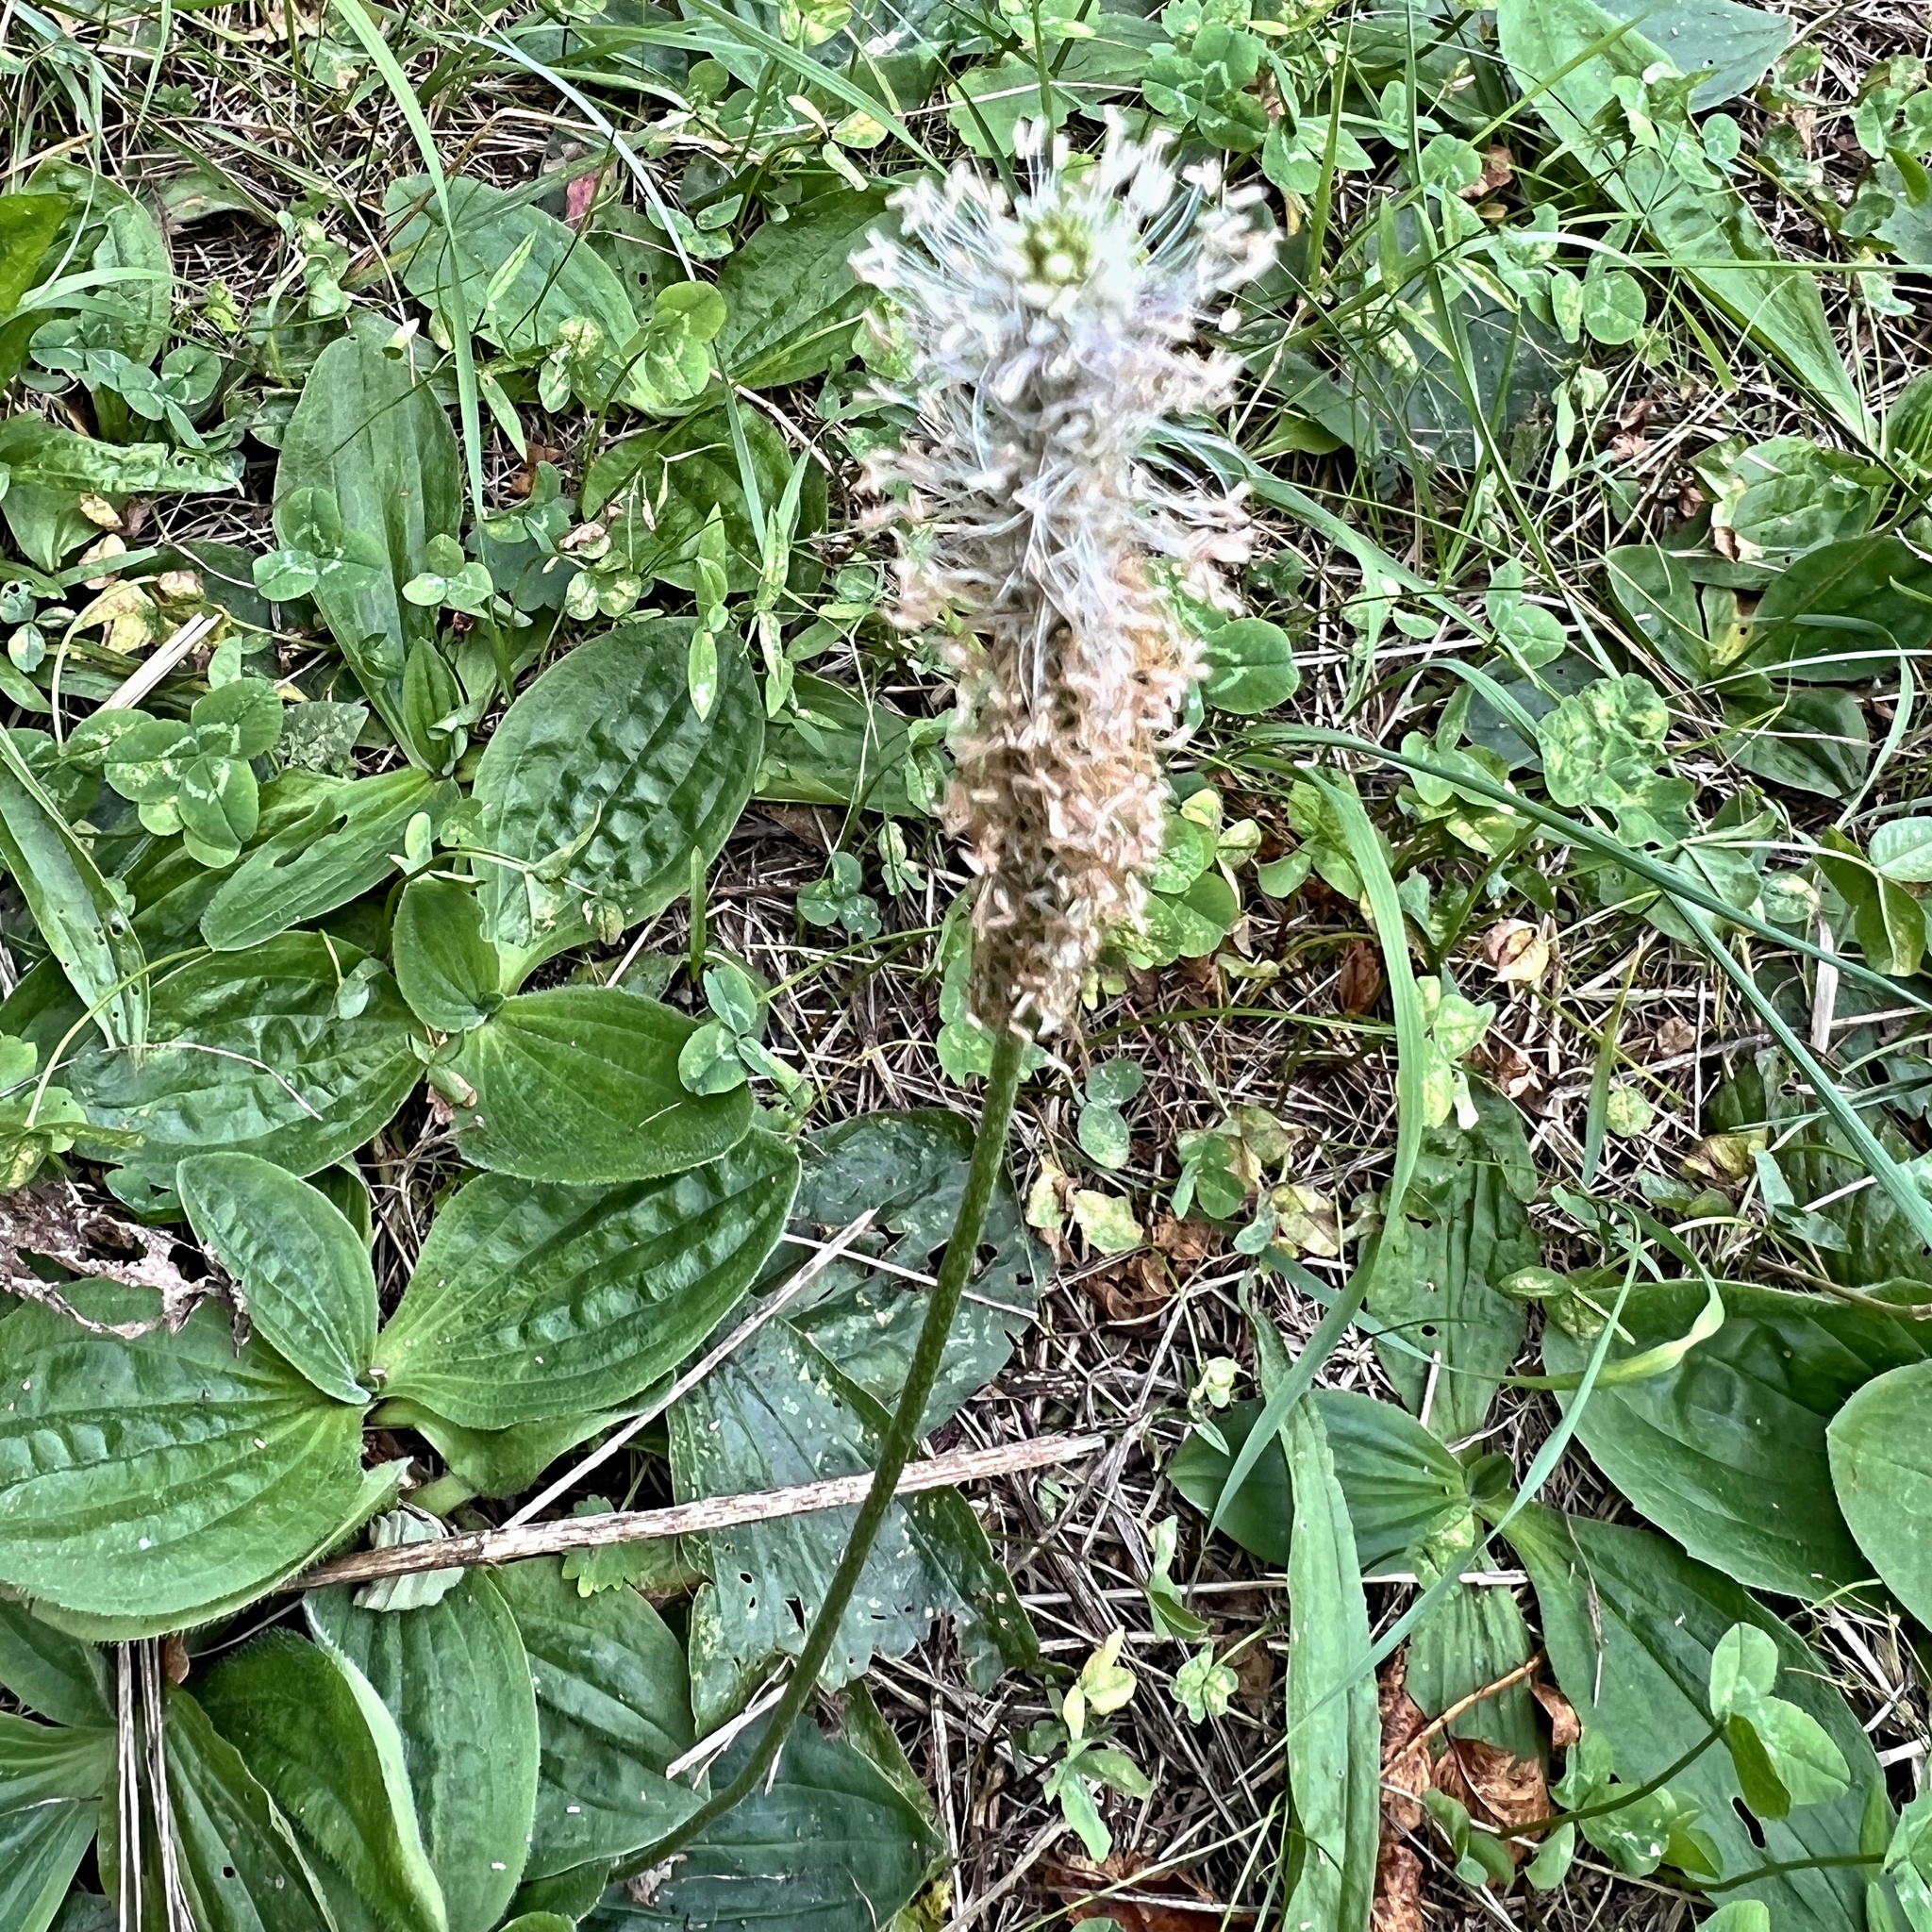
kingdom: Plantae
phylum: Tracheophyta
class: Magnoliopsida
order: Lamiales
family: Plantaginaceae
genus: Plantago
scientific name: Plantago media
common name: Hoary plantain
